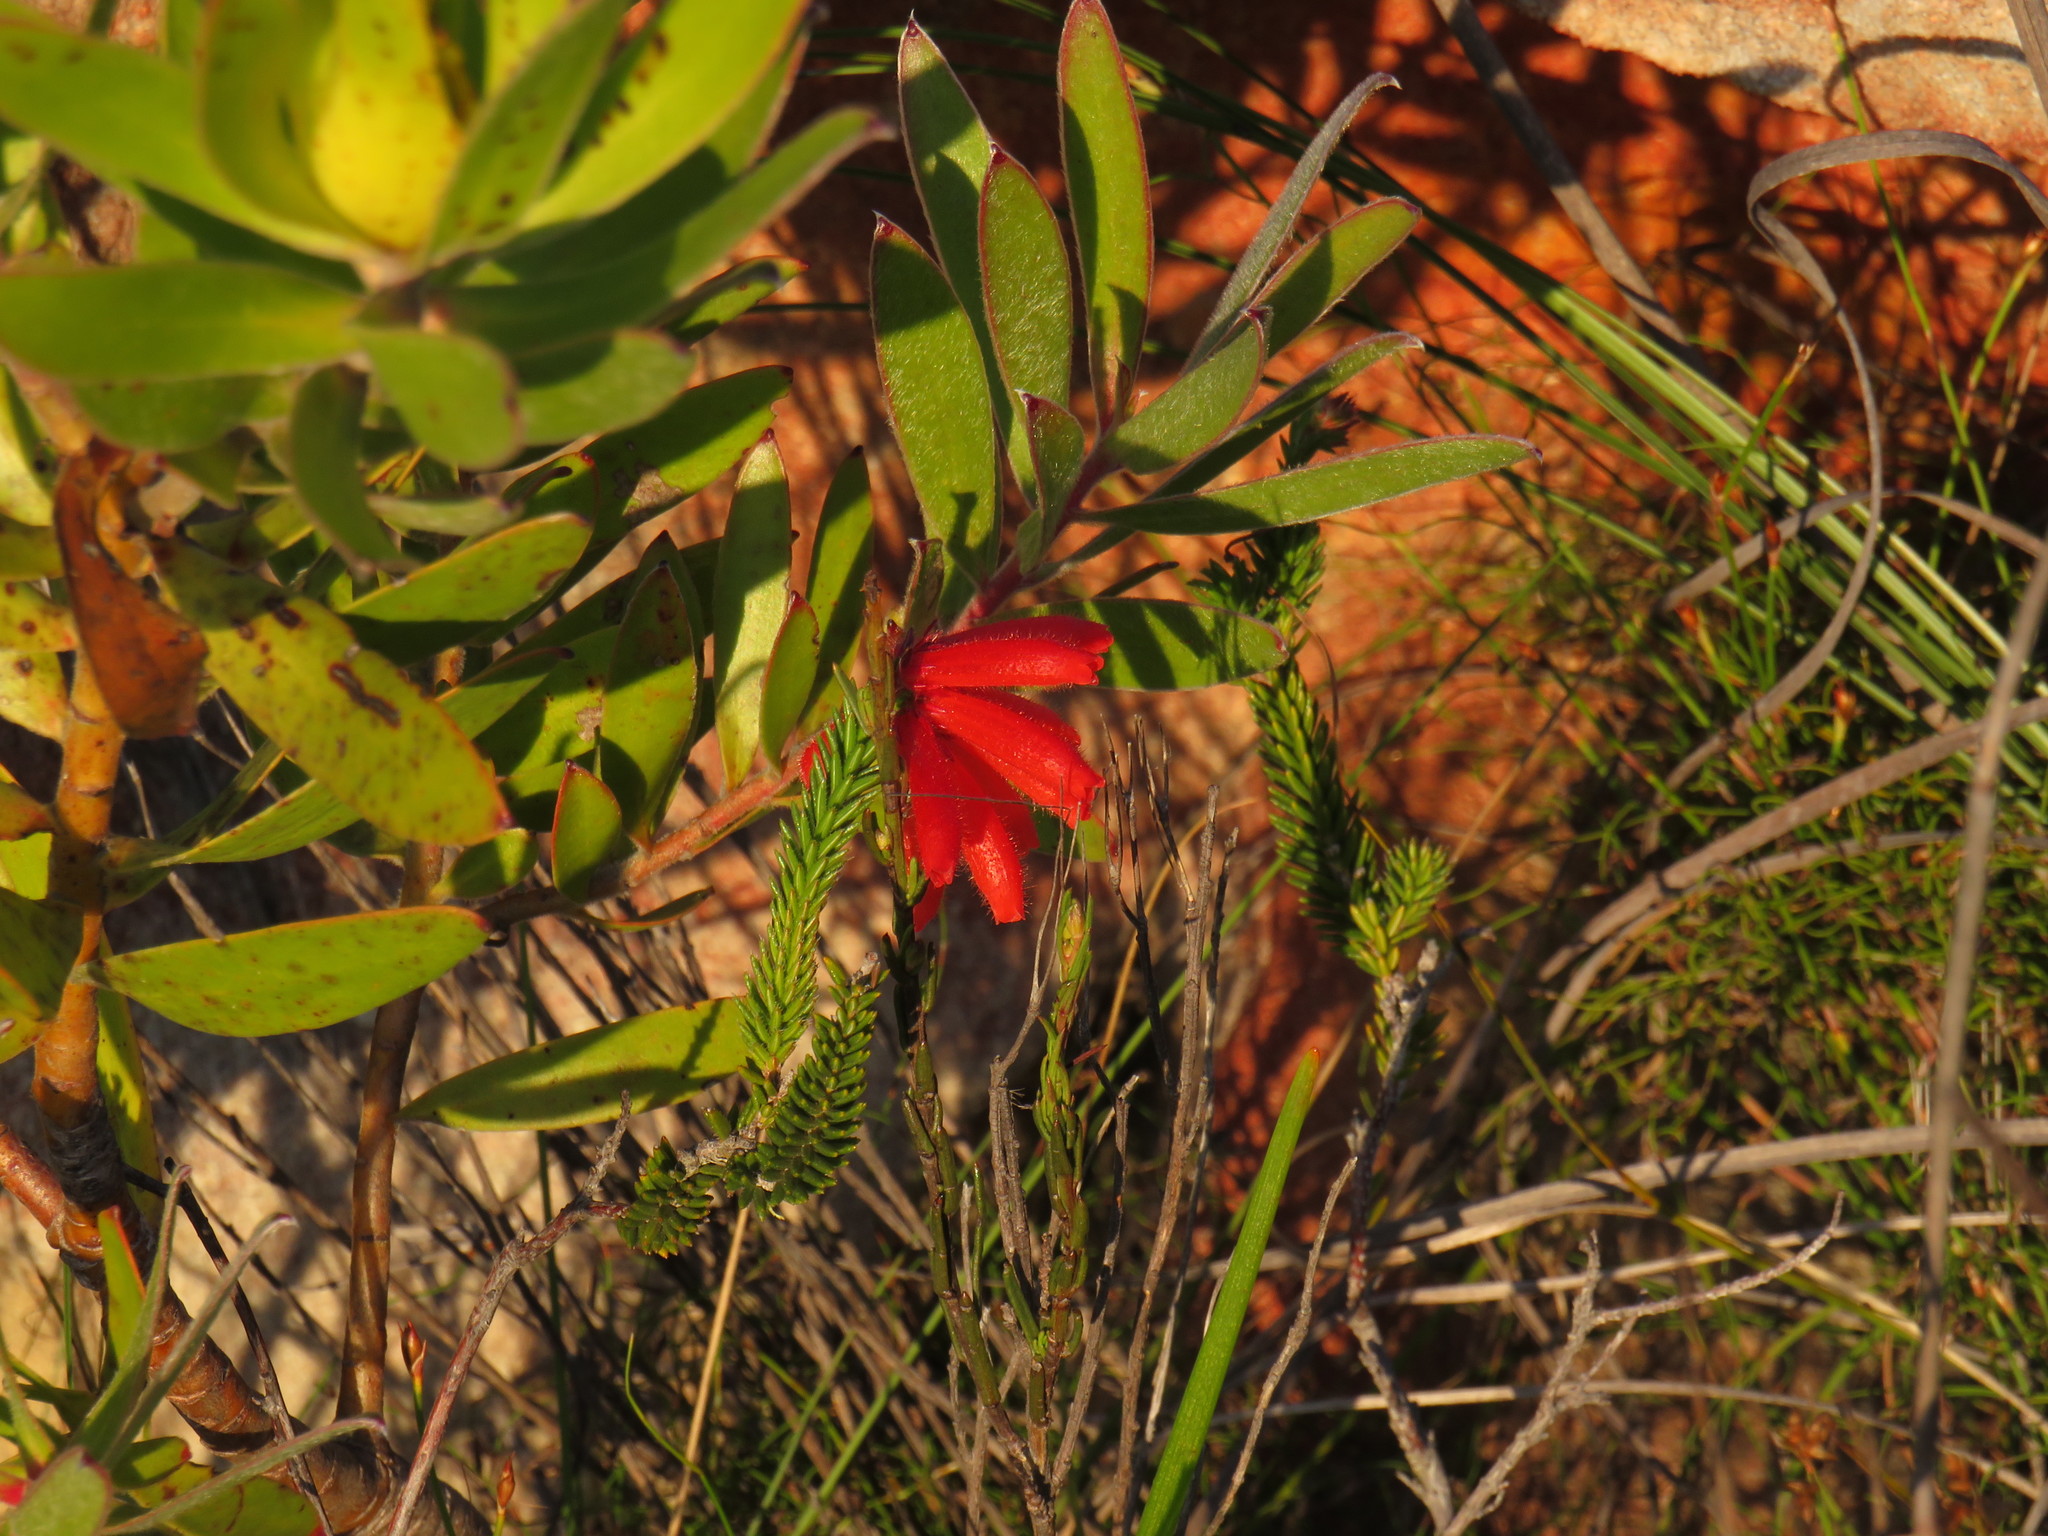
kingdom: Plantae
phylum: Tracheophyta
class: Magnoliopsida
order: Ericales
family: Ericaceae
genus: Erica
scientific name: Erica cerinthoides
